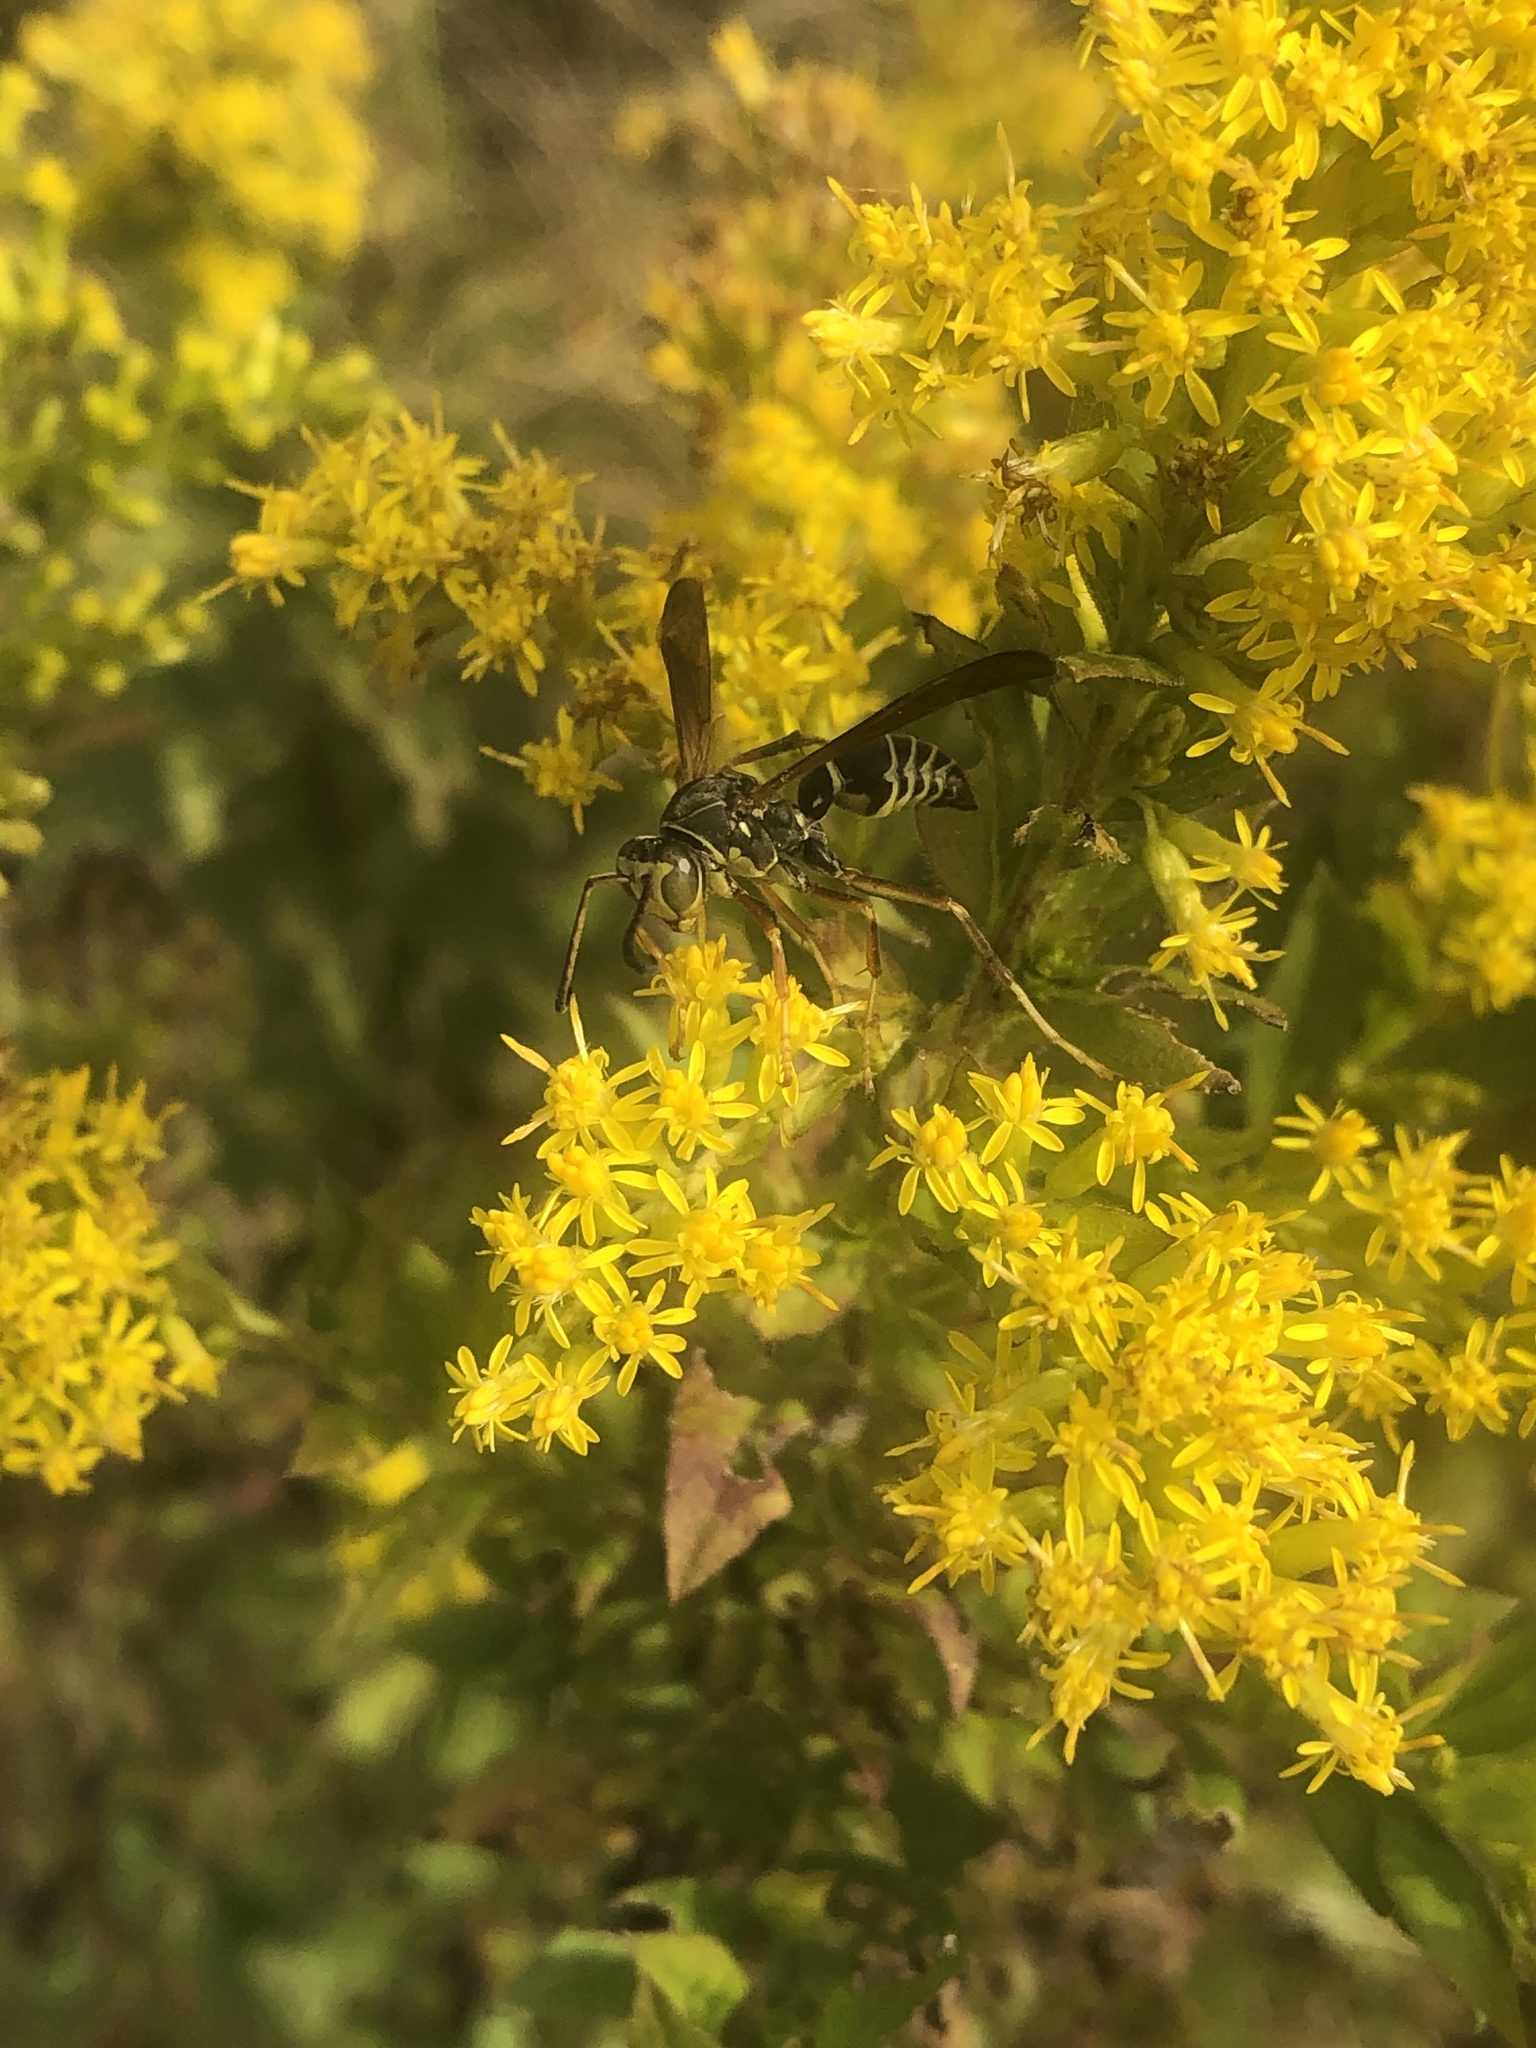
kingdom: Animalia
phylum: Arthropoda
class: Insecta
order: Hymenoptera
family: Eumenidae
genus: Polistes
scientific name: Polistes fuscatus
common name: Dark paper wasp
